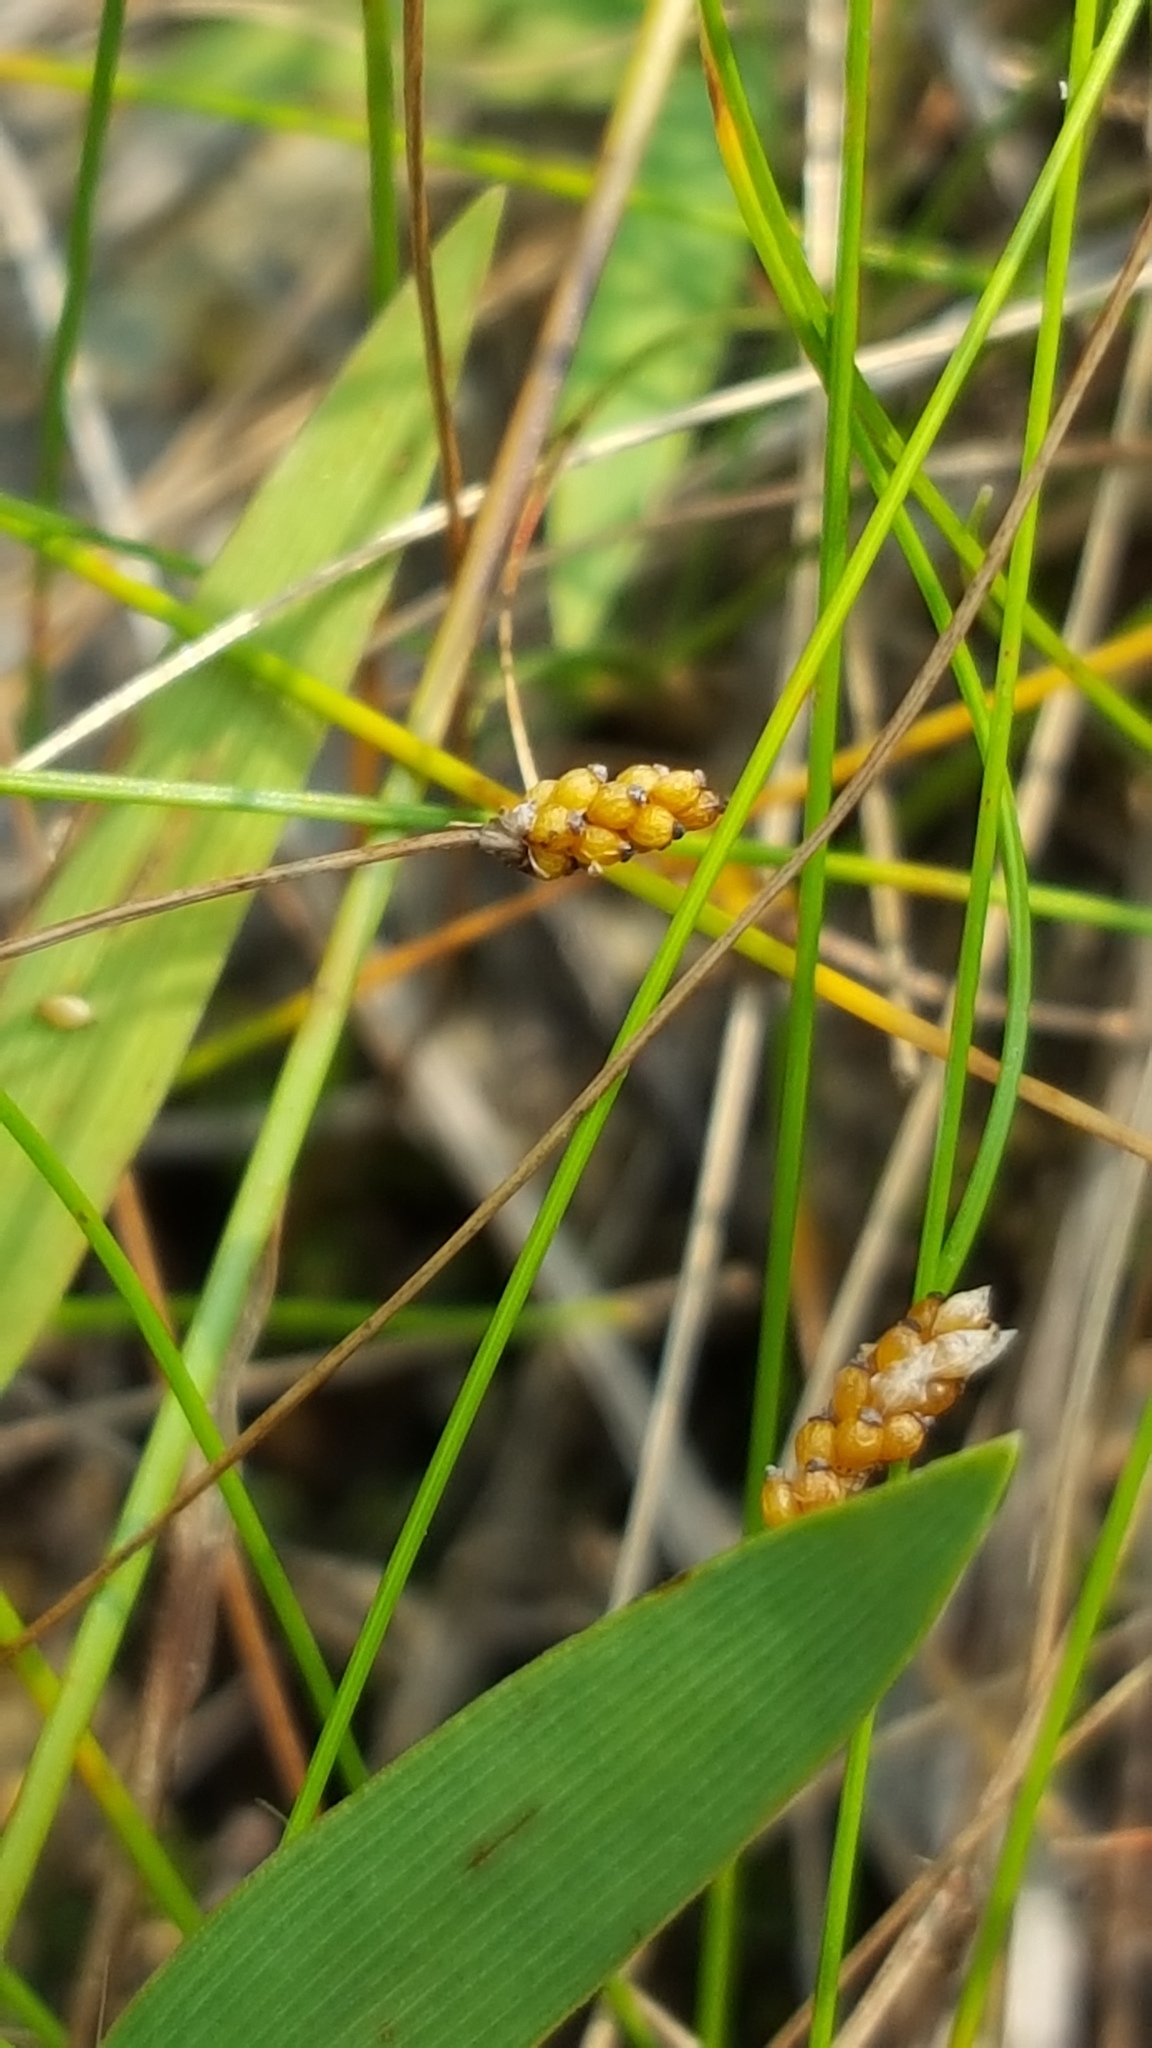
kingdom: Plantae
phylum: Tracheophyta
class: Liliopsida
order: Poales
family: Cyperaceae
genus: Eleocharis
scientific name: Eleocharis nitida
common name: Neat spikerush
